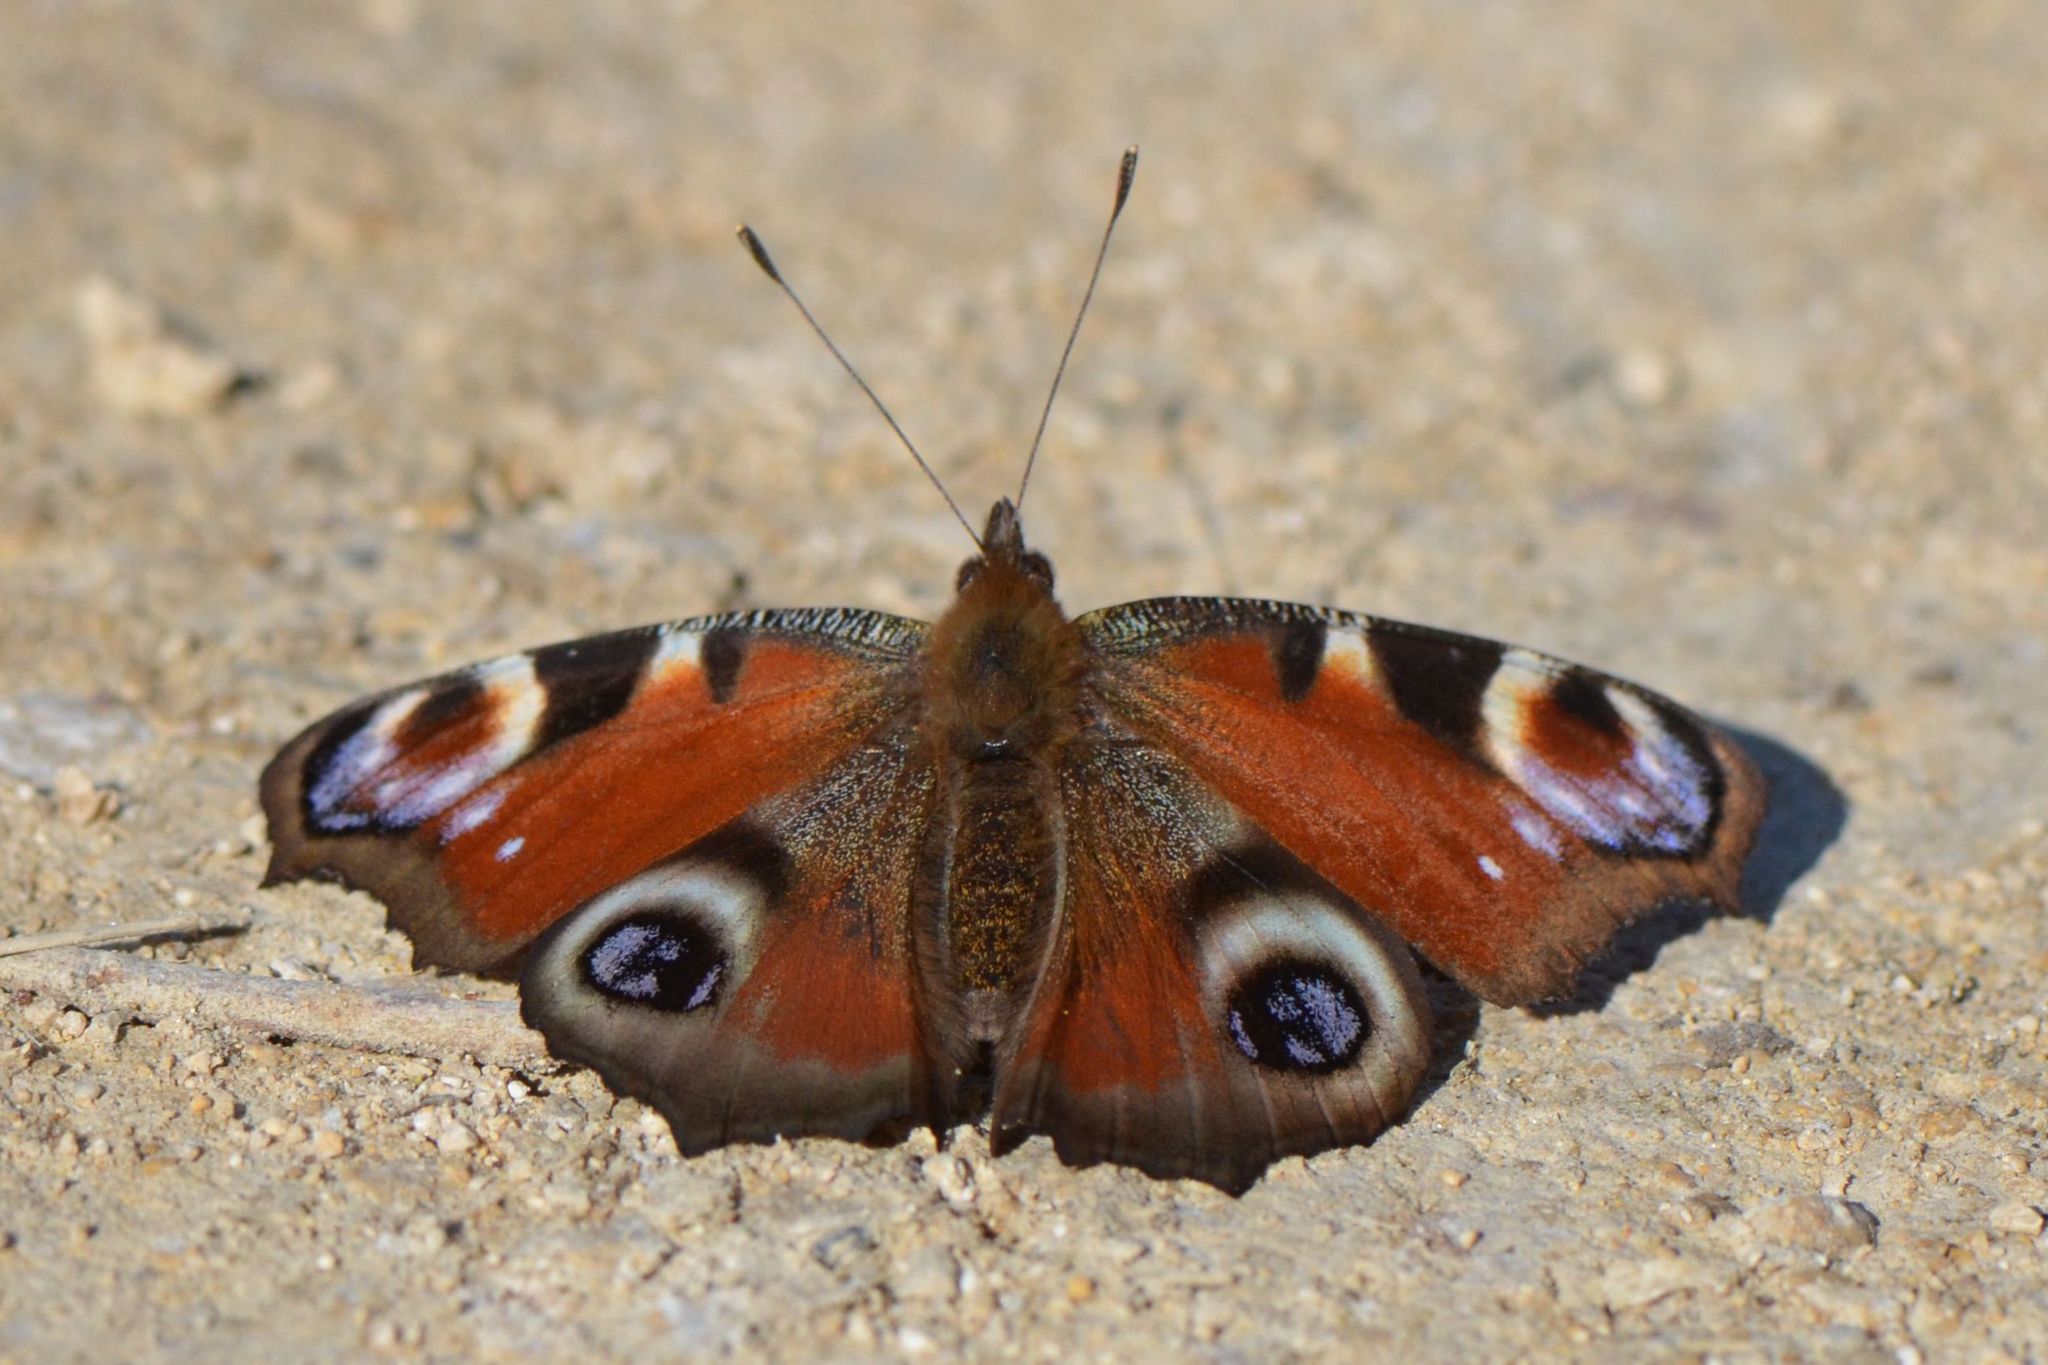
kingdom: Animalia
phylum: Arthropoda
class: Insecta
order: Lepidoptera
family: Nymphalidae
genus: Aglais
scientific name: Aglais io
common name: Peacock
